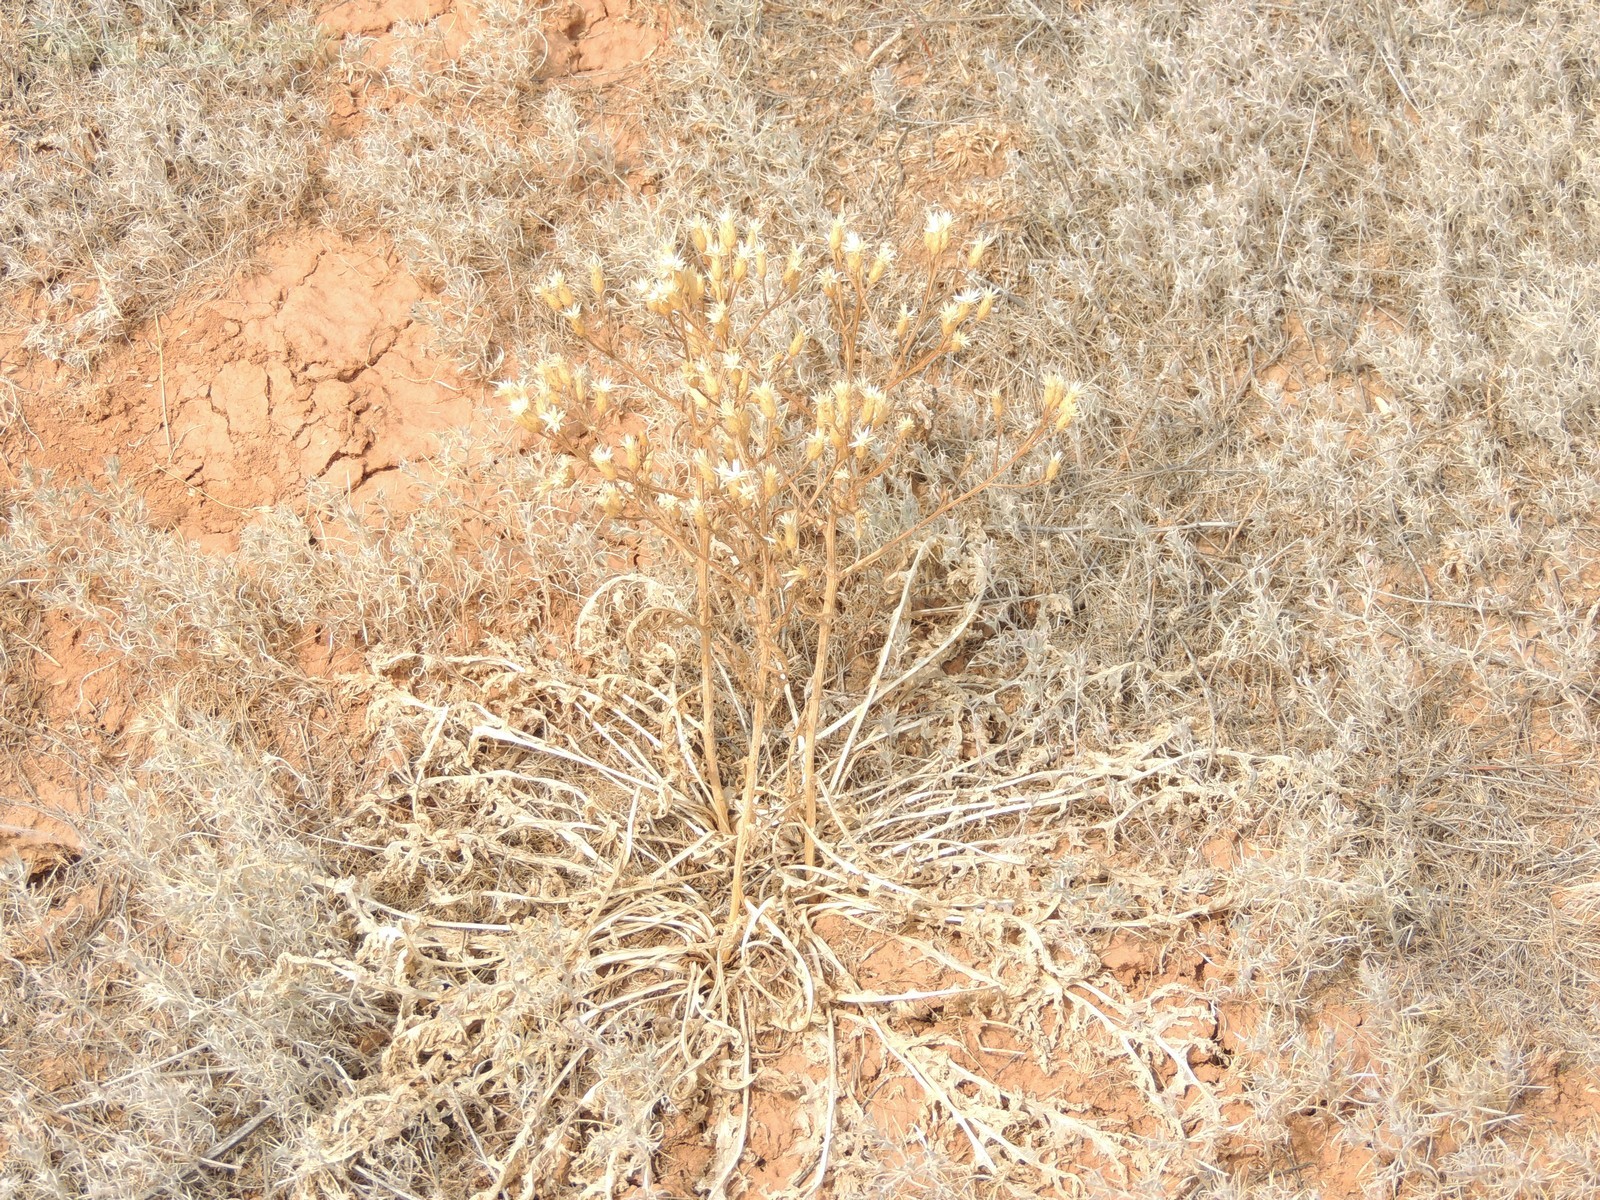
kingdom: Plantae
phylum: Tracheophyta
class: Magnoliopsida
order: Asterales
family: Asteraceae
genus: Klasea
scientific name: Klasea erucifolia
